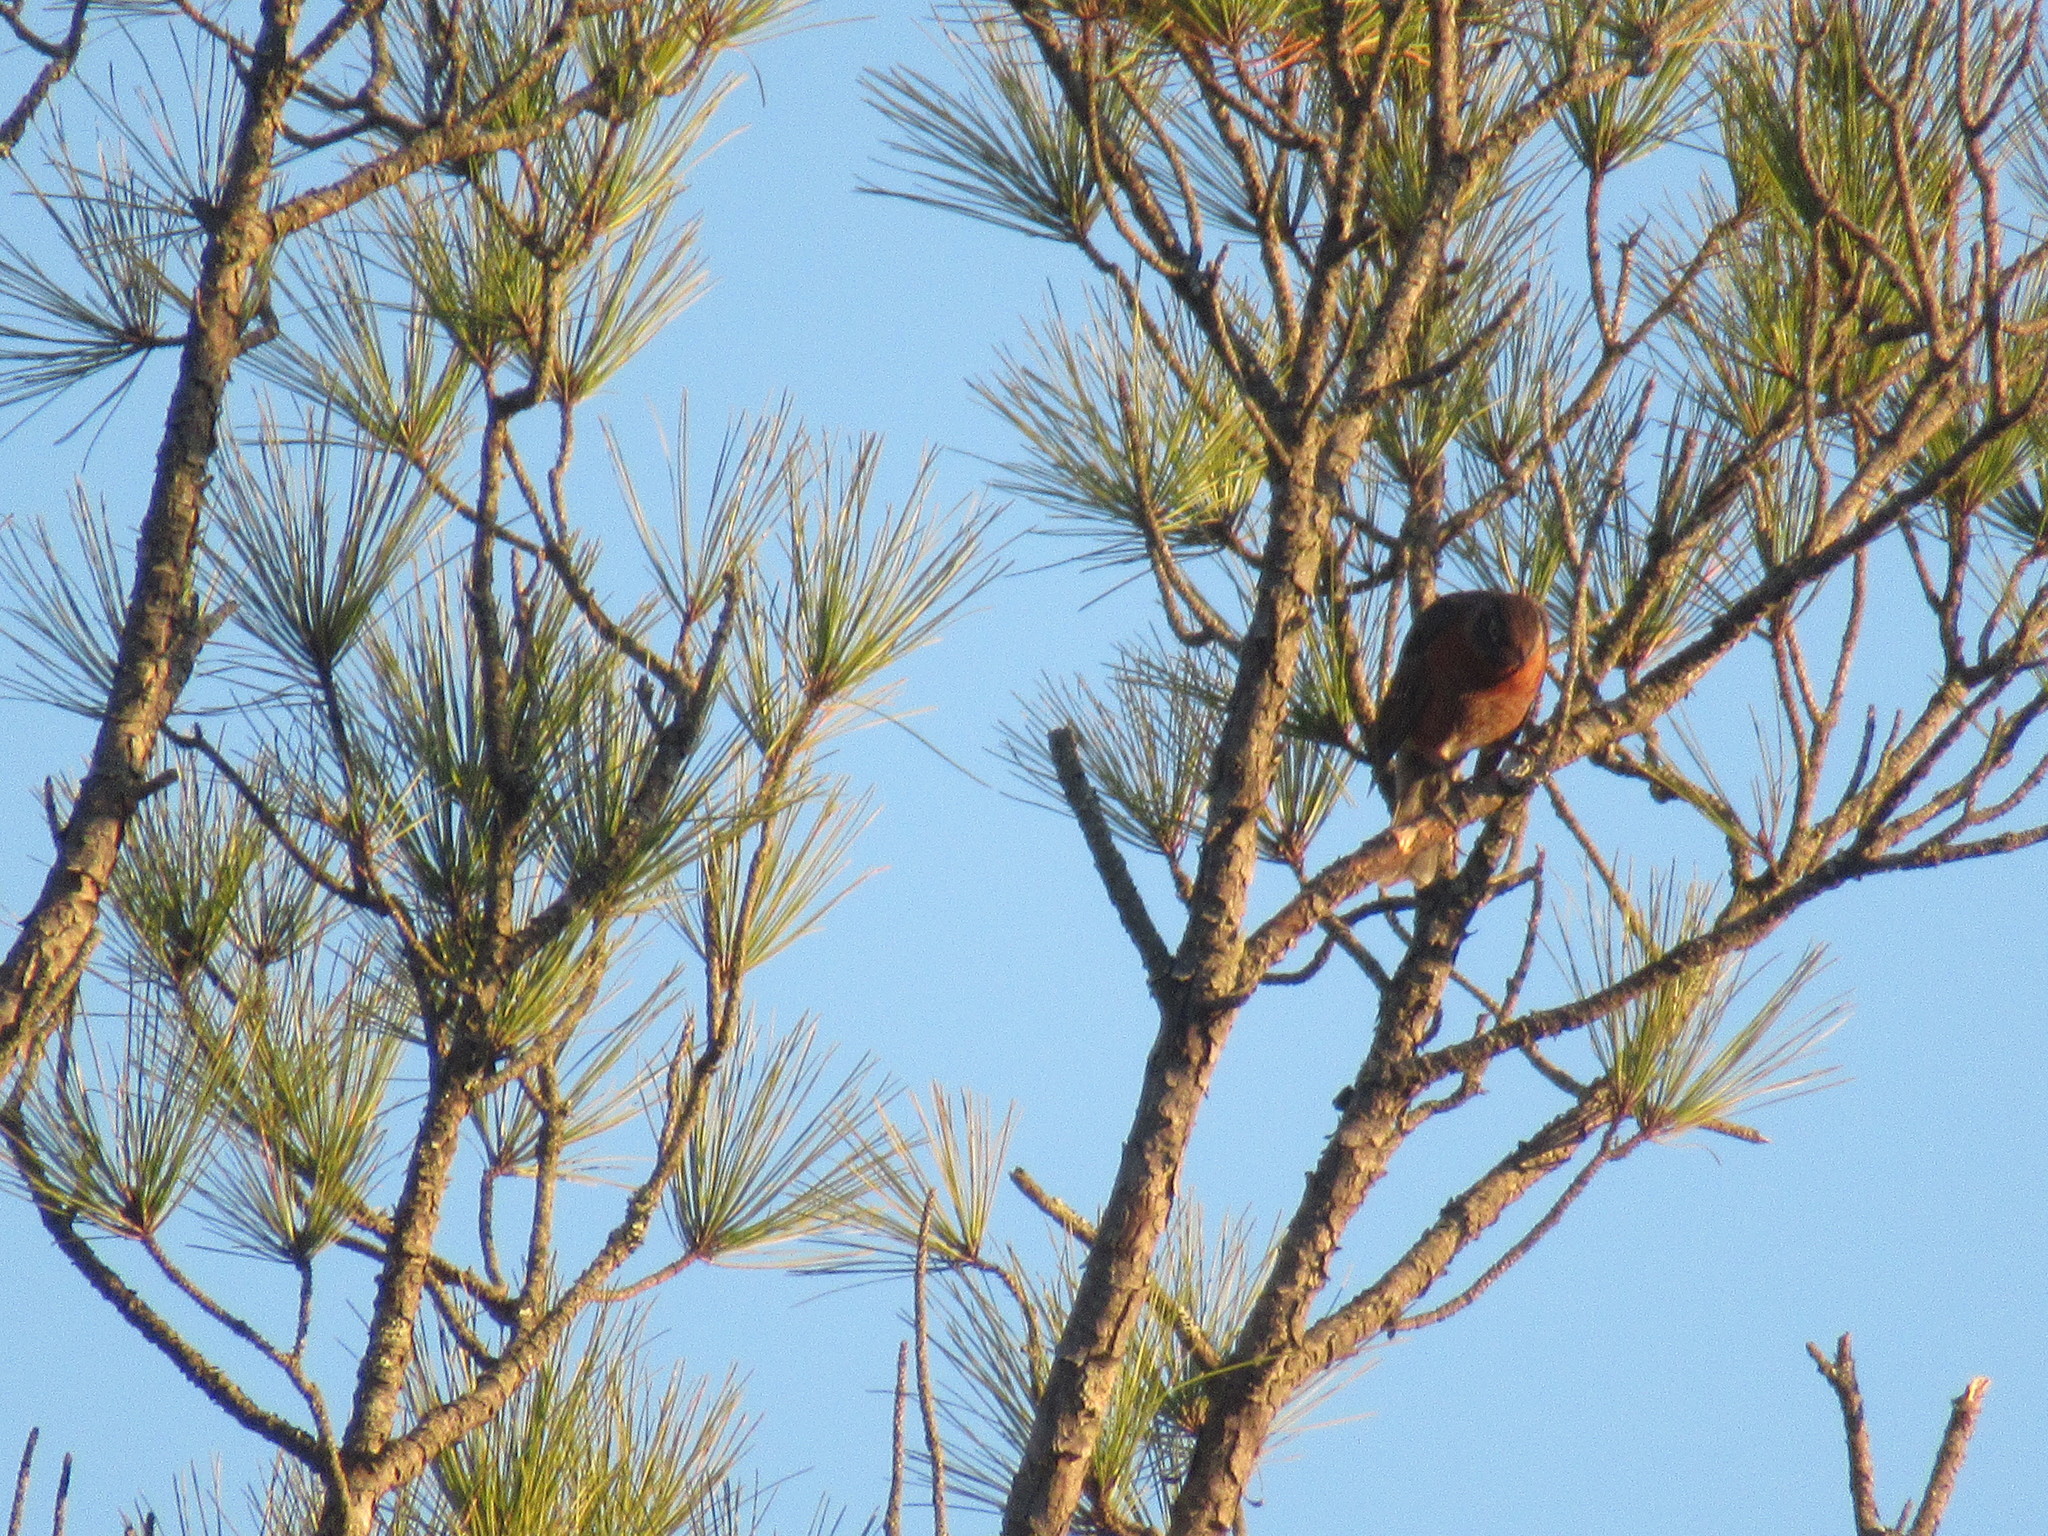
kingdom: Animalia
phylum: Chordata
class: Aves
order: Passeriformes
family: Turdidae
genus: Turdus
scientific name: Turdus migratorius
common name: American robin
